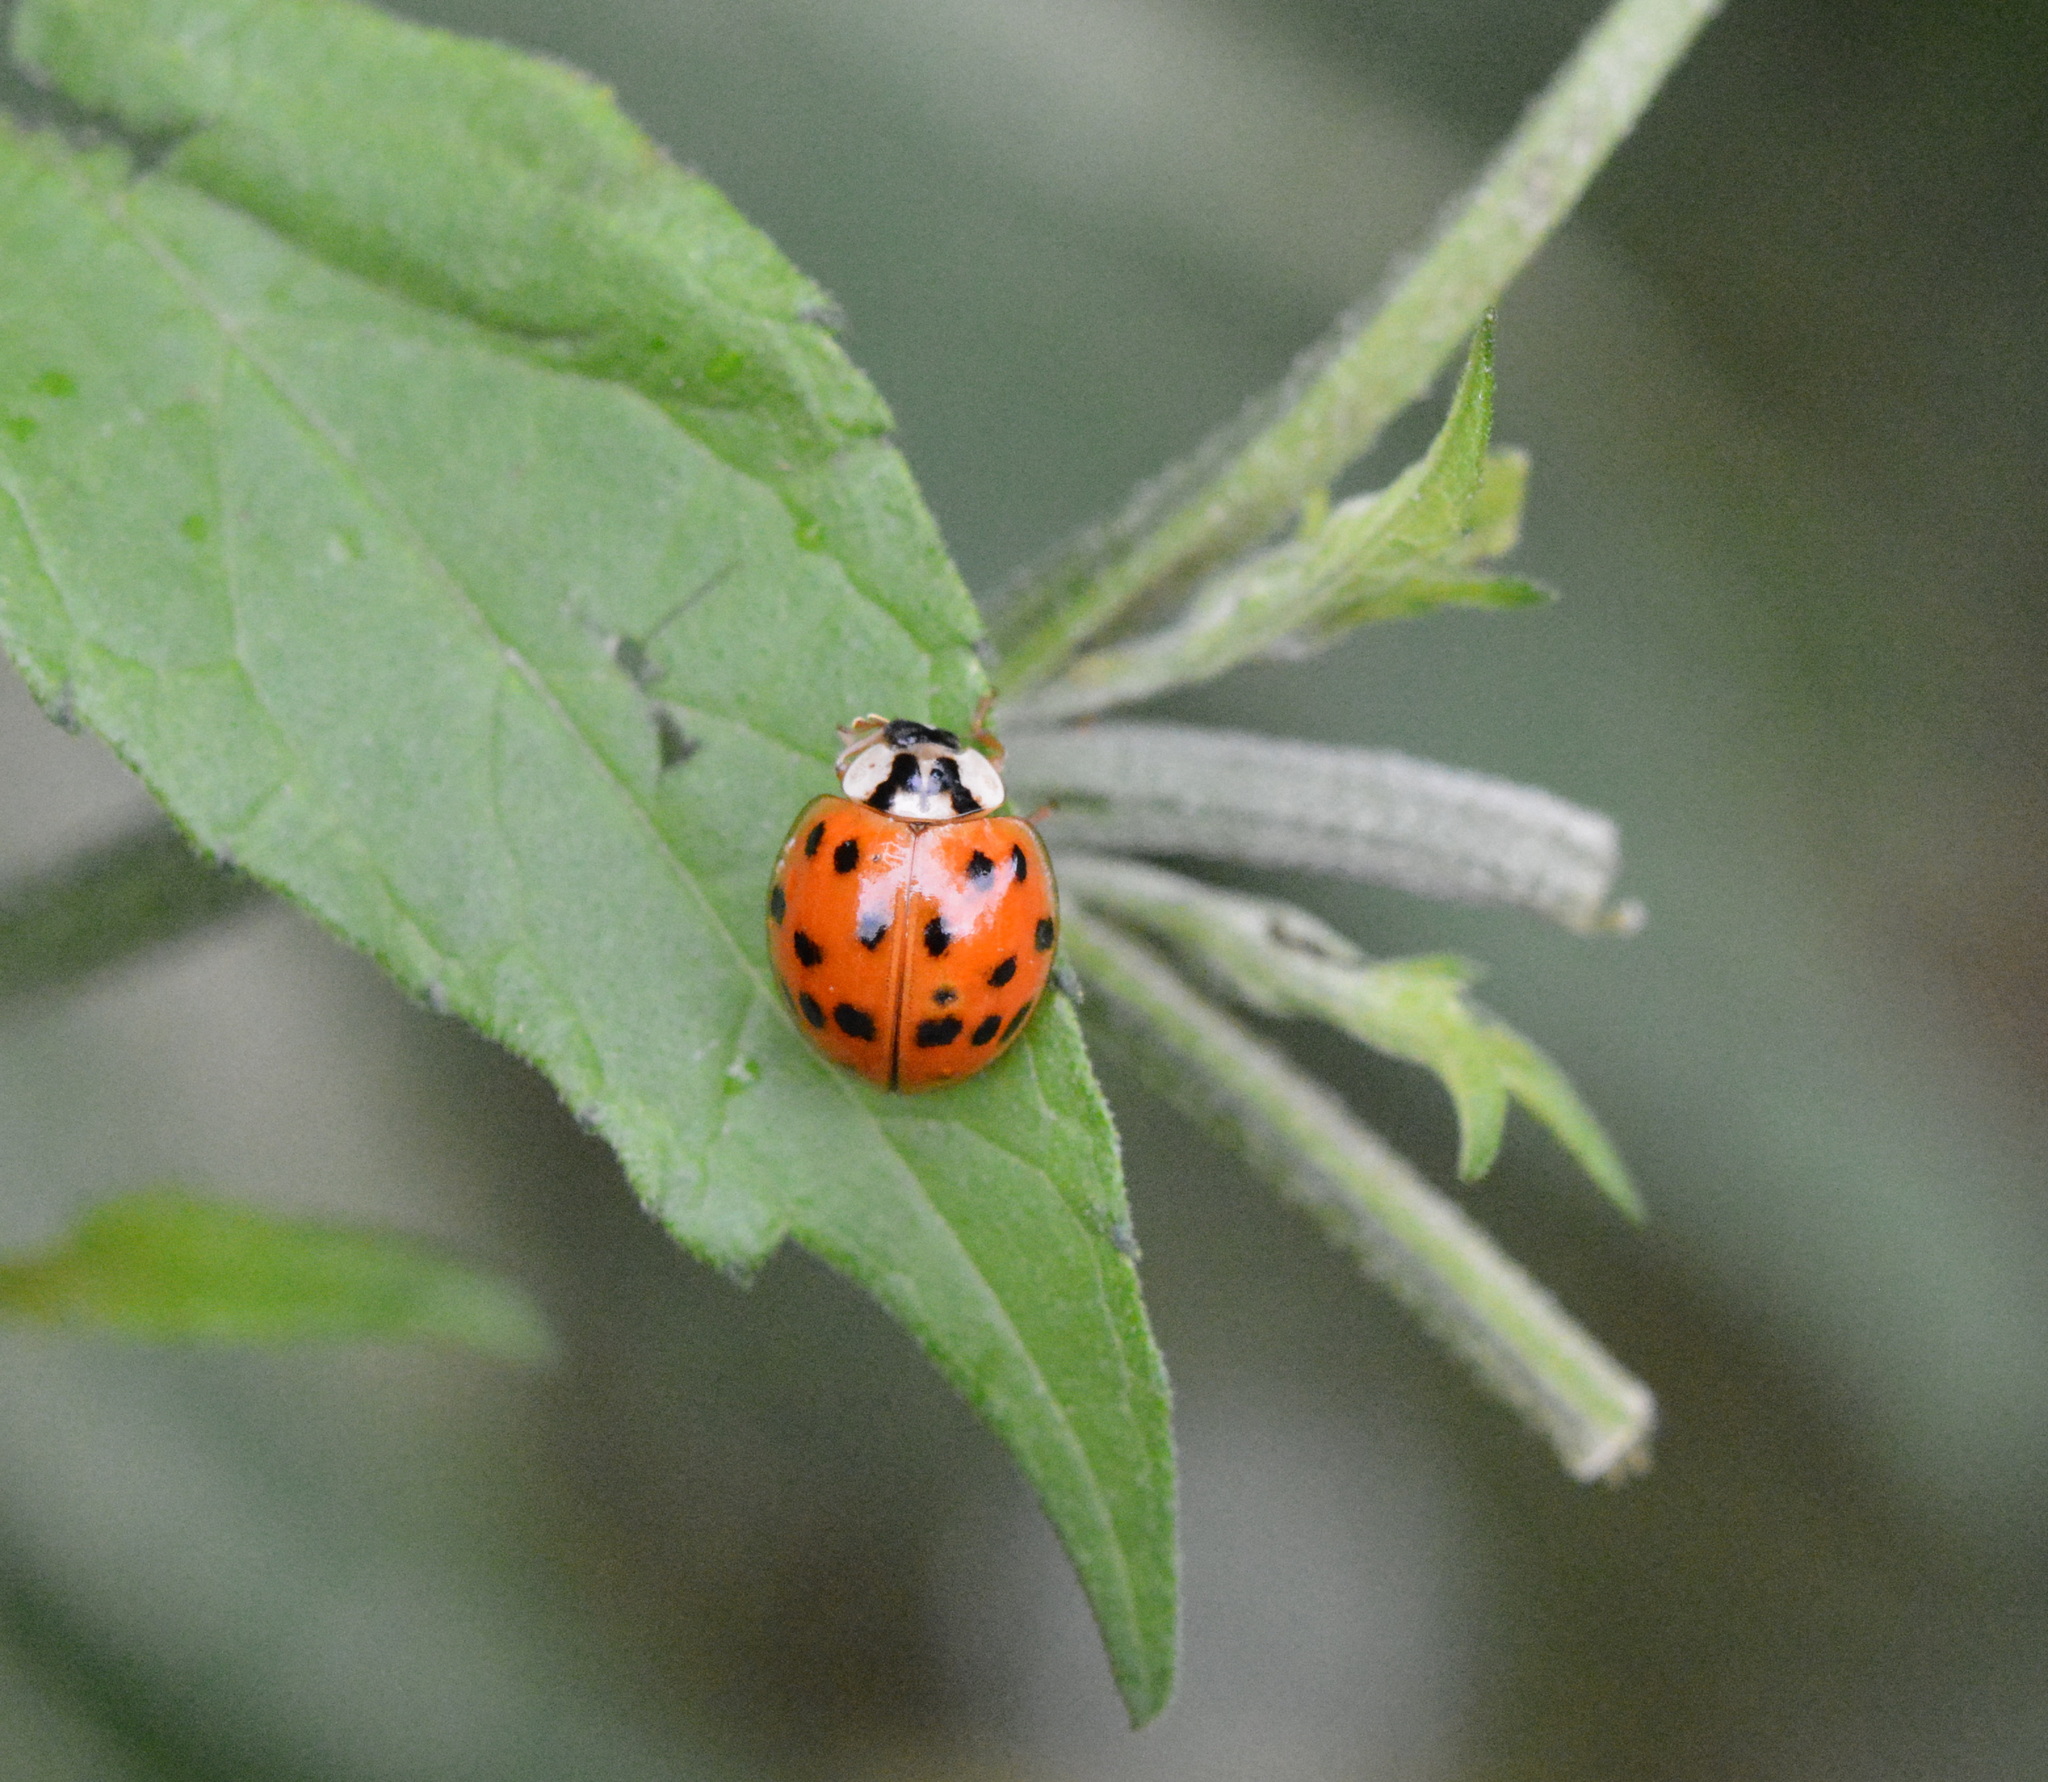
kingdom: Animalia
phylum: Arthropoda
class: Insecta
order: Coleoptera
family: Coccinellidae
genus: Harmonia
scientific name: Harmonia axyridis
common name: Harlequin ladybird
